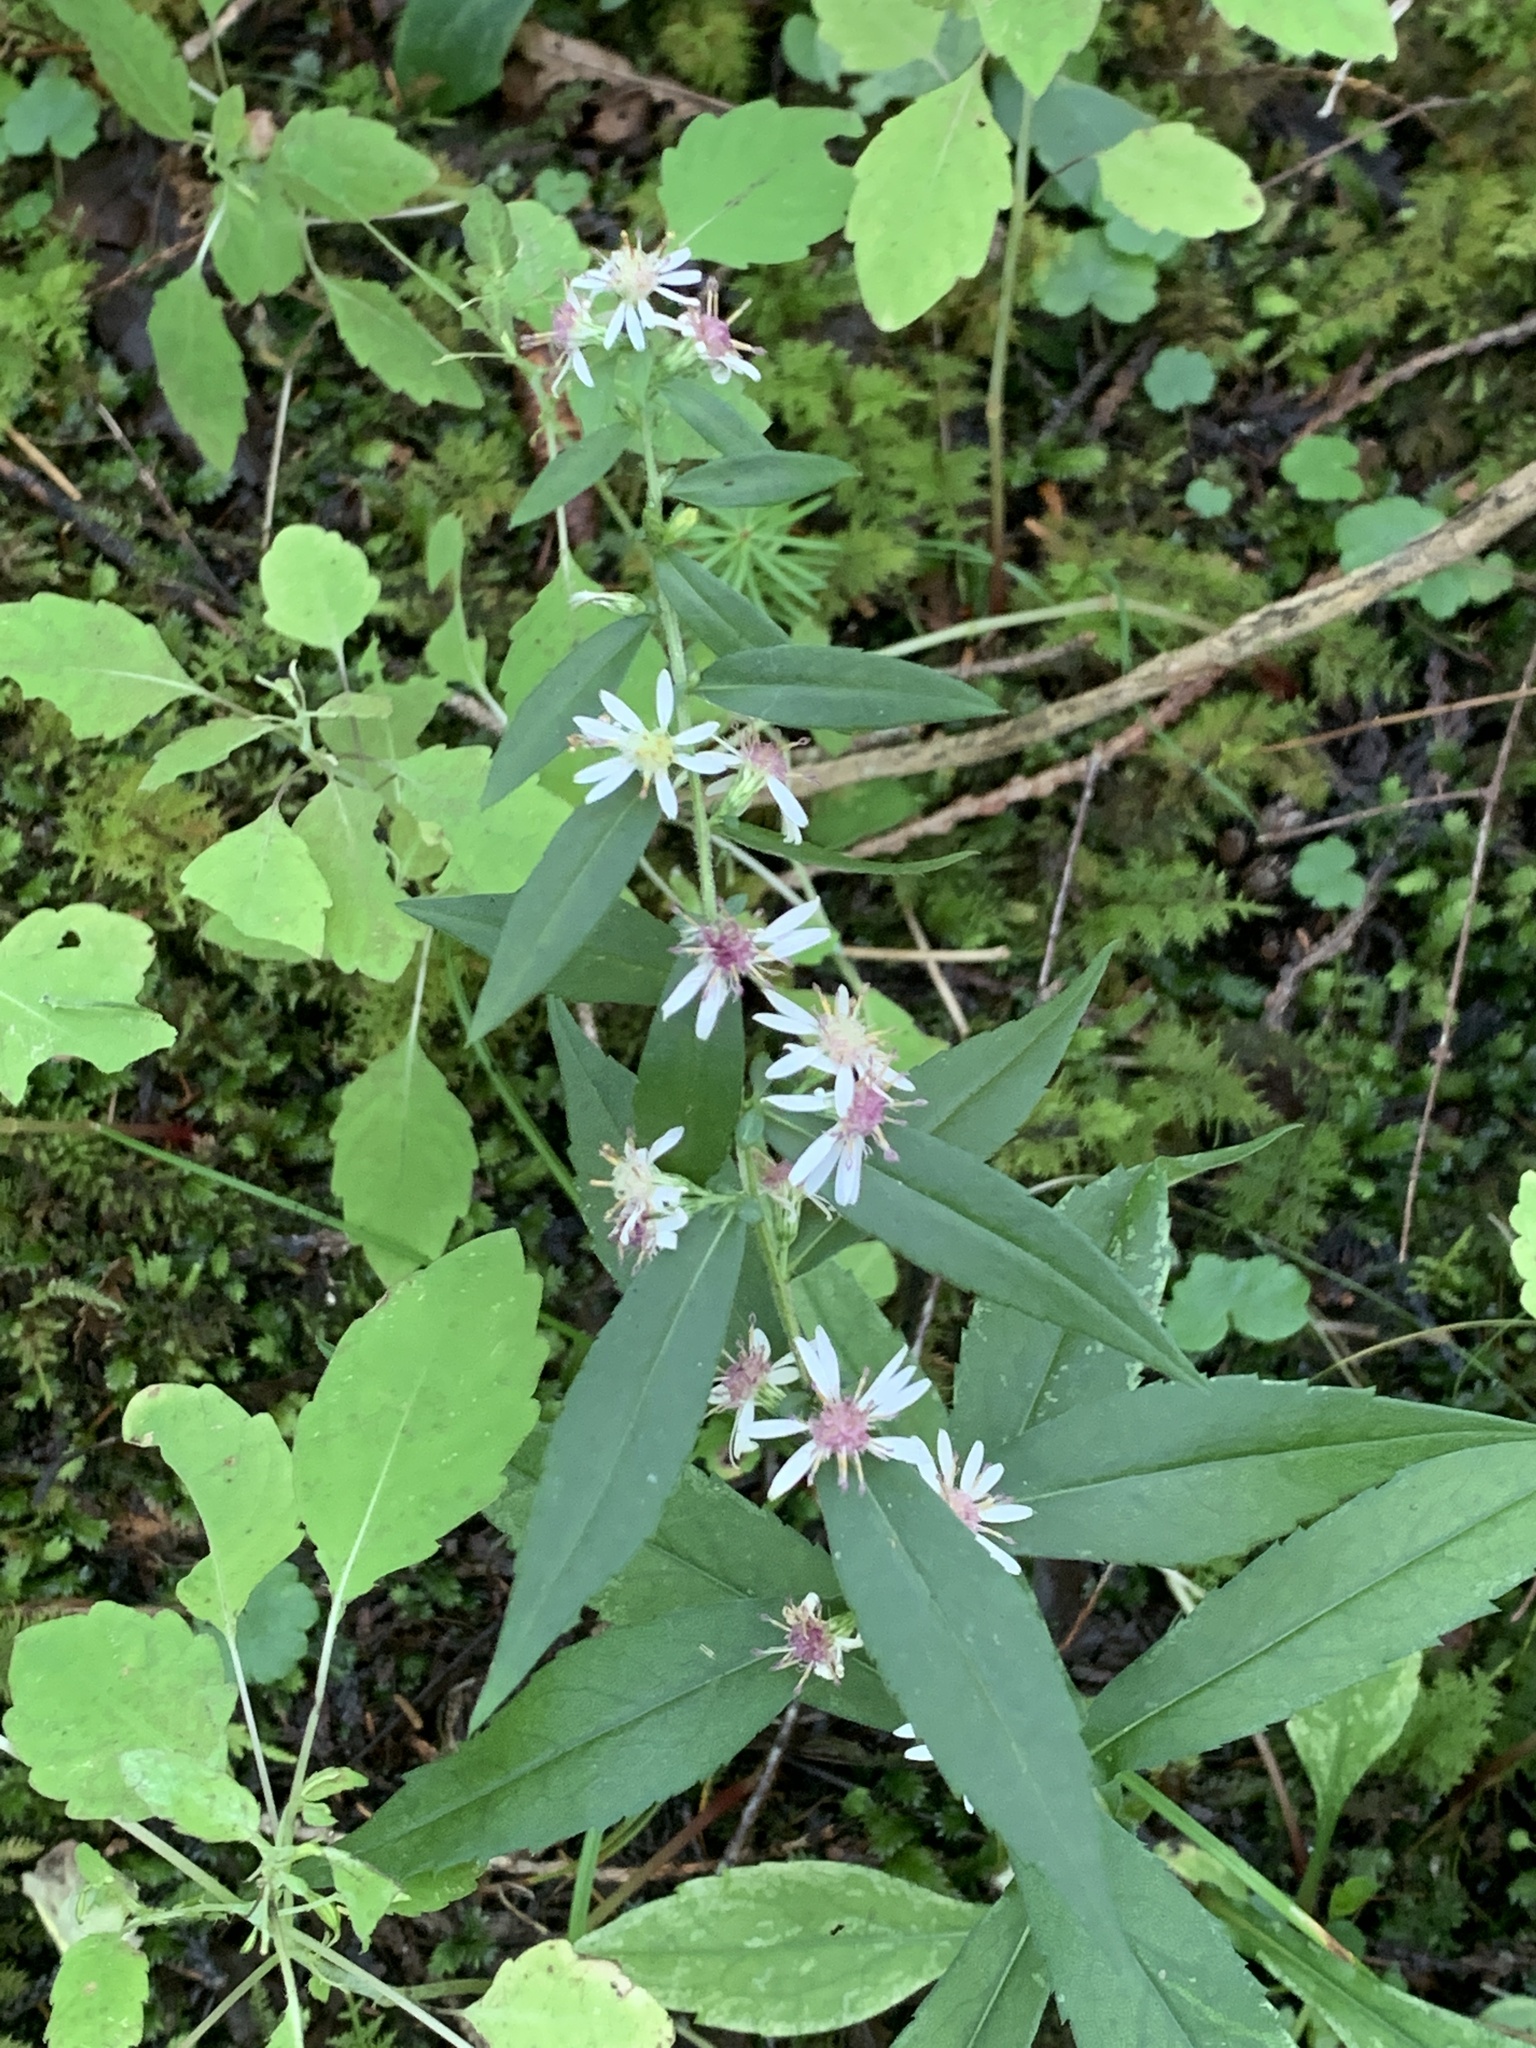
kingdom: Plantae
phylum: Tracheophyta
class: Magnoliopsida
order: Asterales
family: Asteraceae
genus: Symphyotrichum
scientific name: Symphyotrichum lateriflorum
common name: Calico aster
